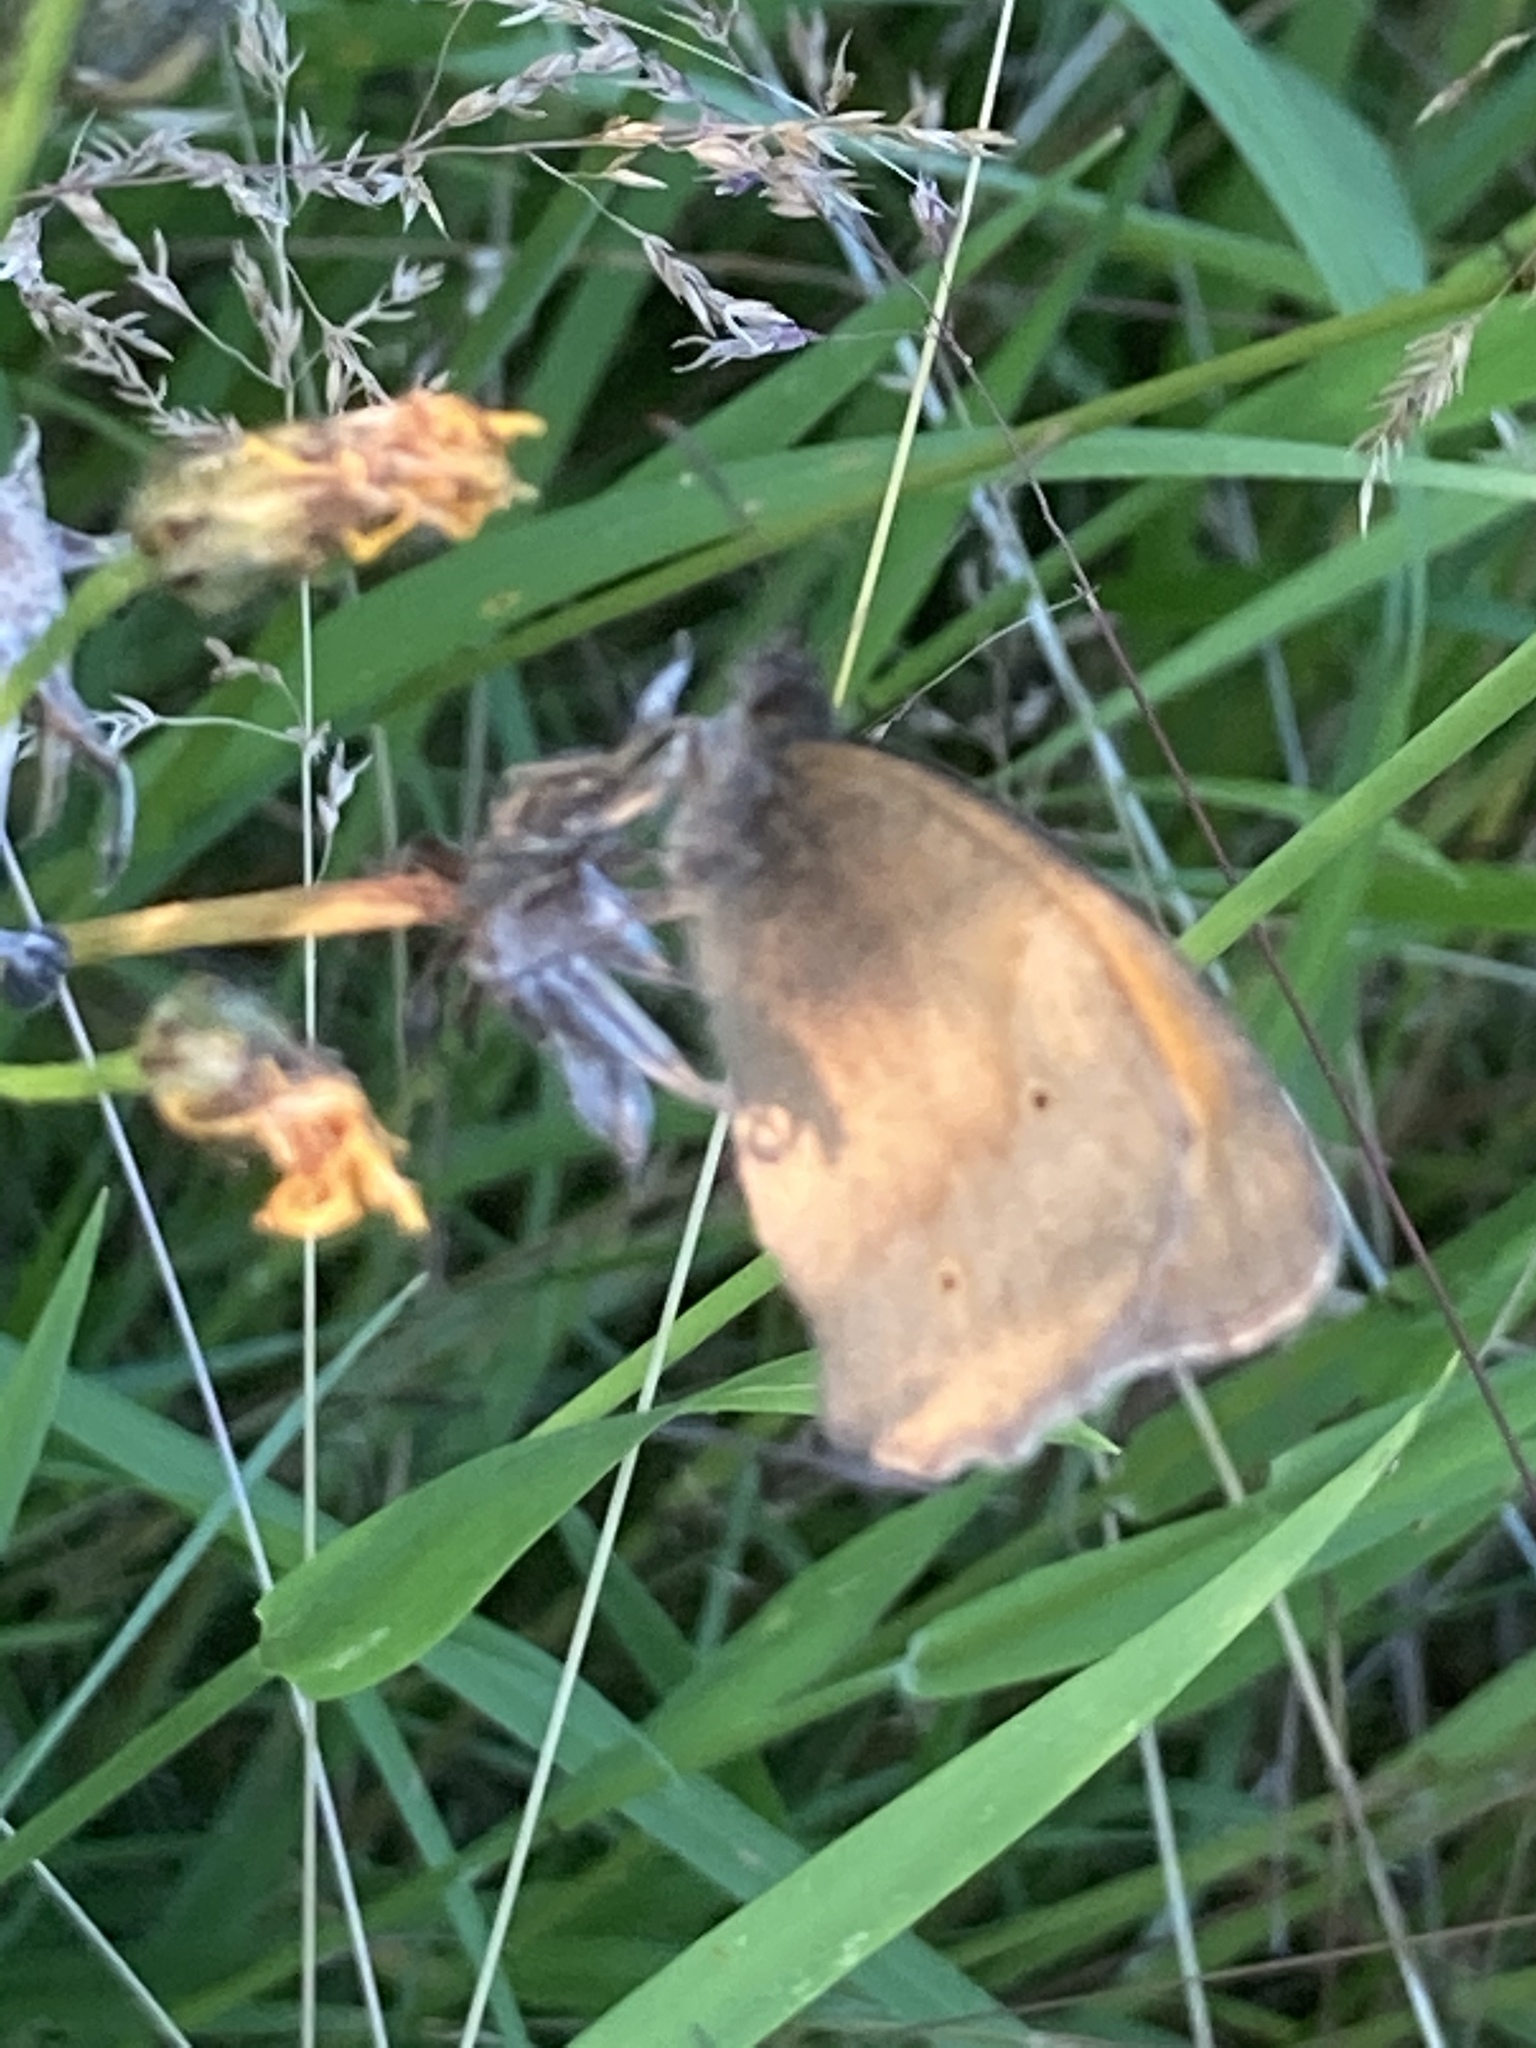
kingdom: Animalia
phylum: Arthropoda
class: Insecta
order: Lepidoptera
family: Nymphalidae
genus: Maniola
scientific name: Maniola jurtina
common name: Meadow brown
